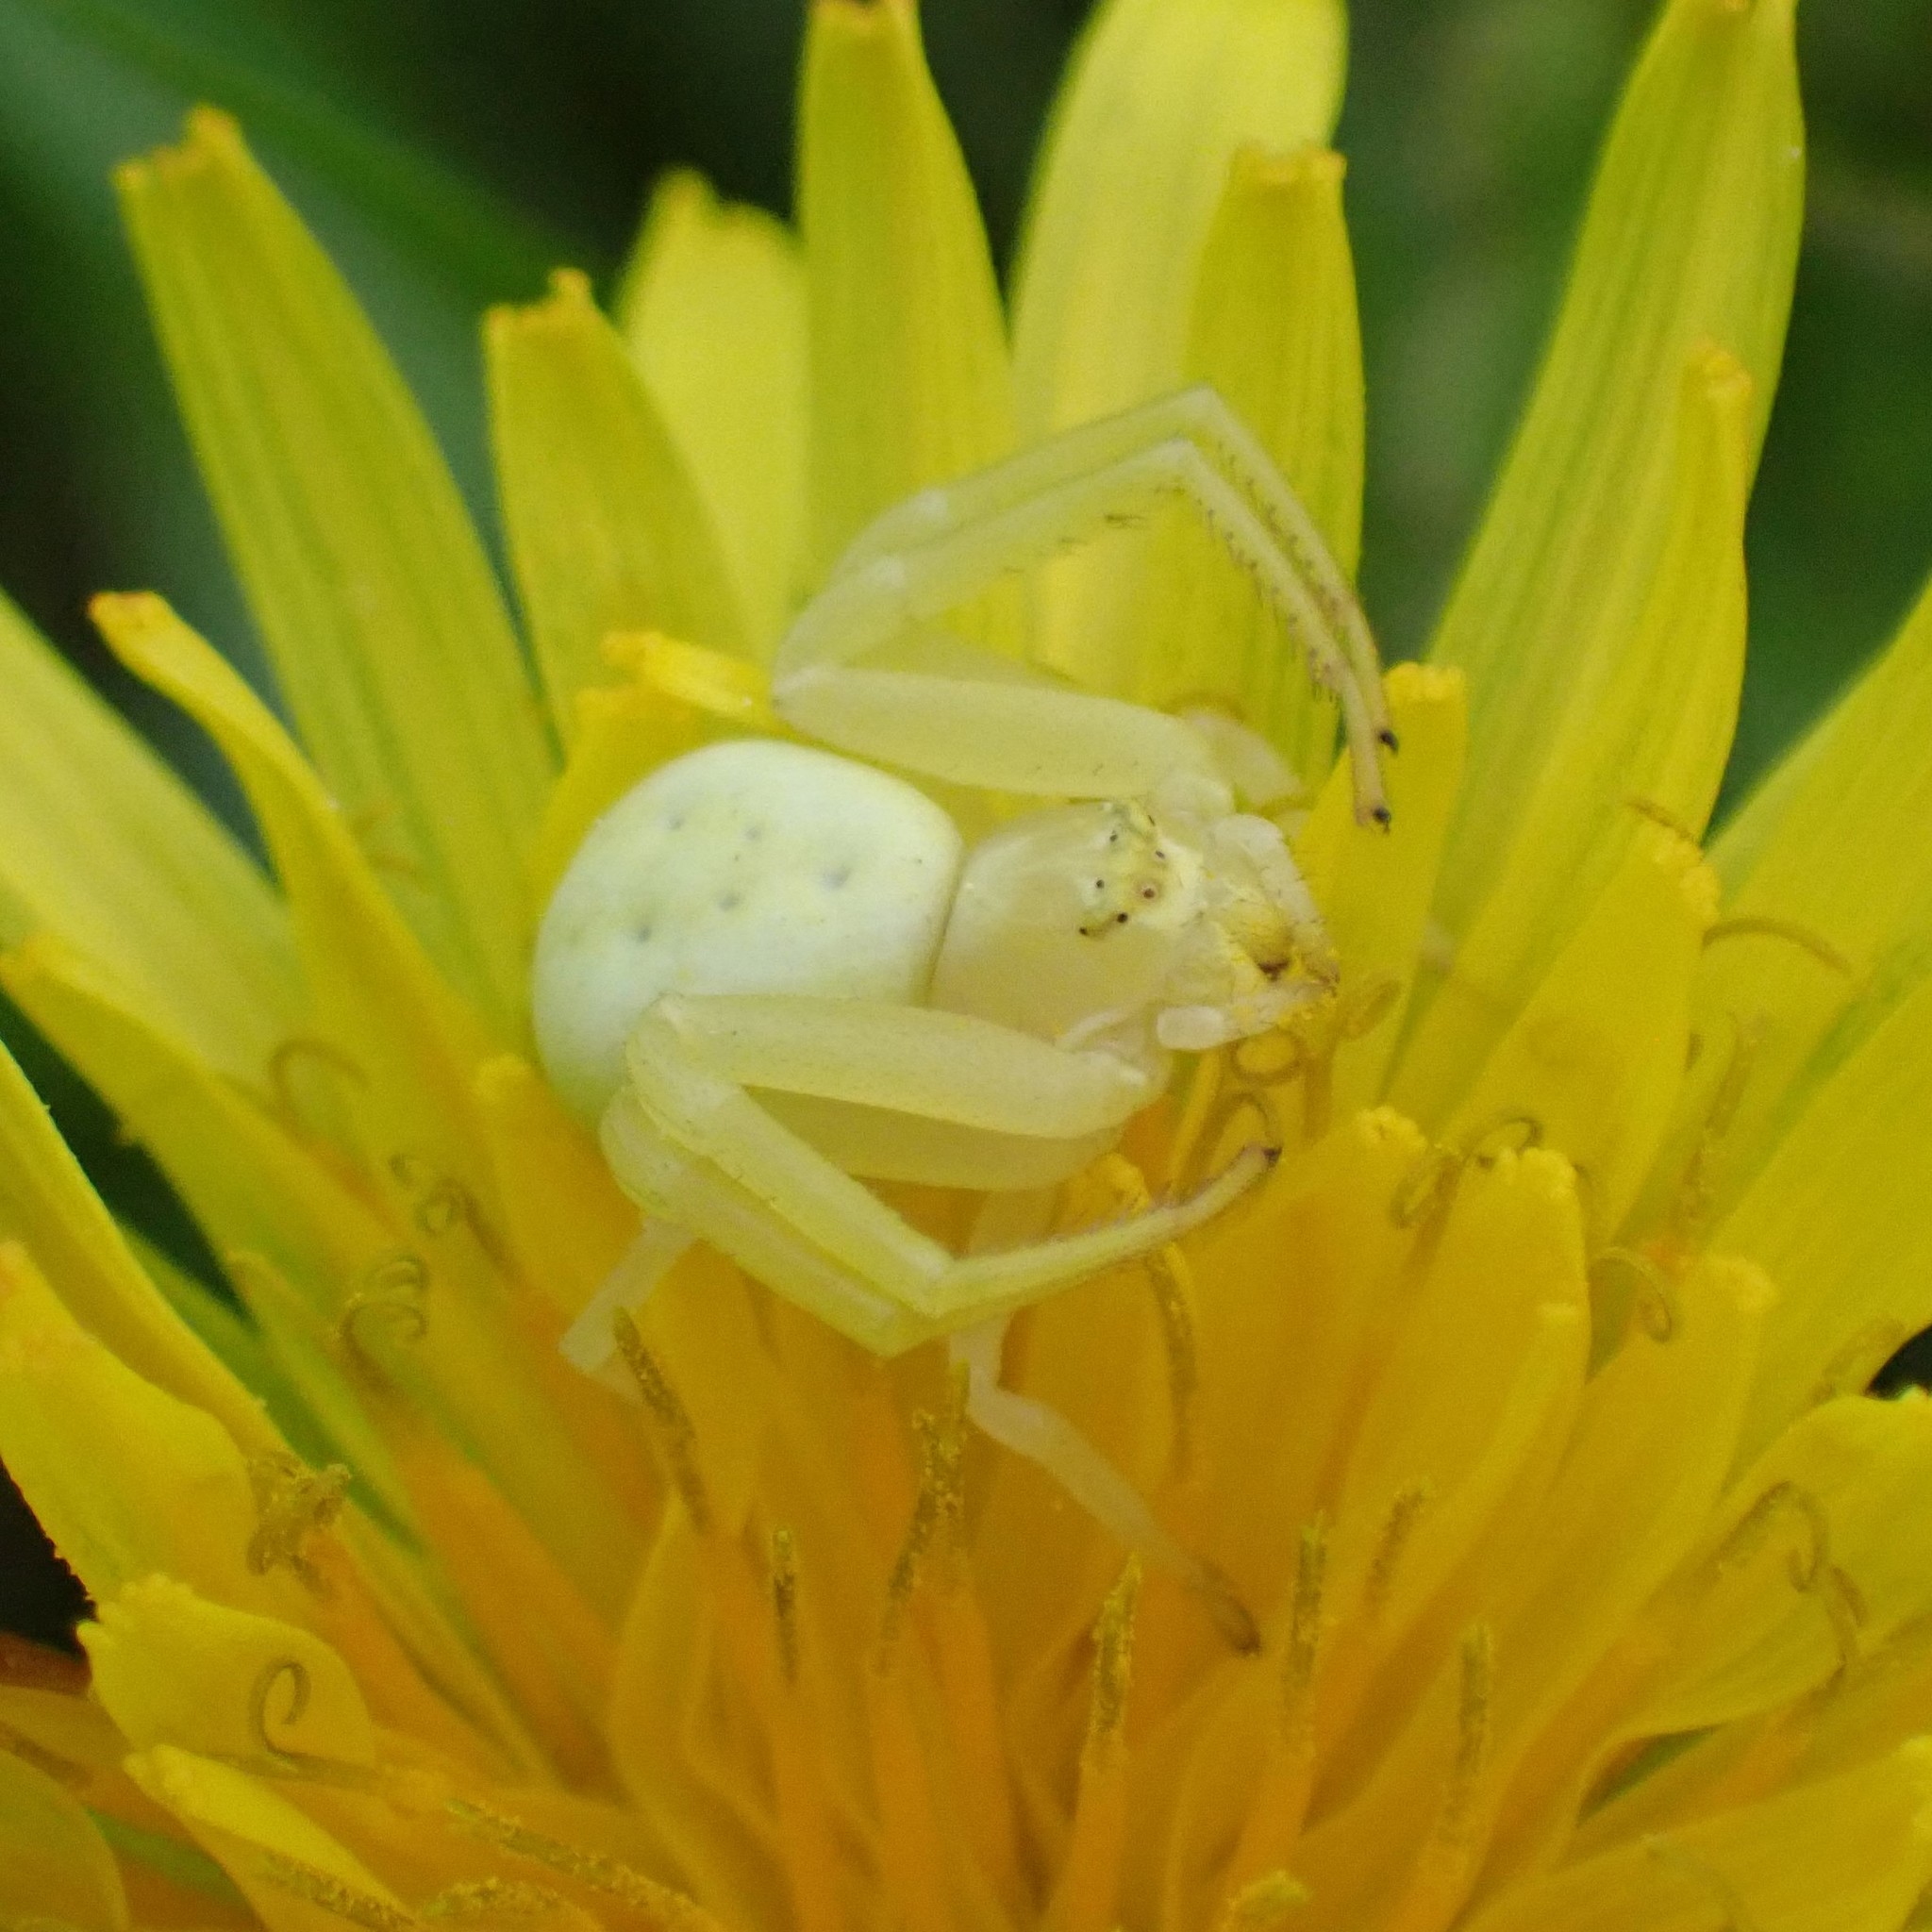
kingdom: Animalia
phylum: Arthropoda
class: Arachnida
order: Araneae
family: Thomisidae
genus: Misumena
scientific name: Misumena vatia
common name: Goldenrod crab spider
